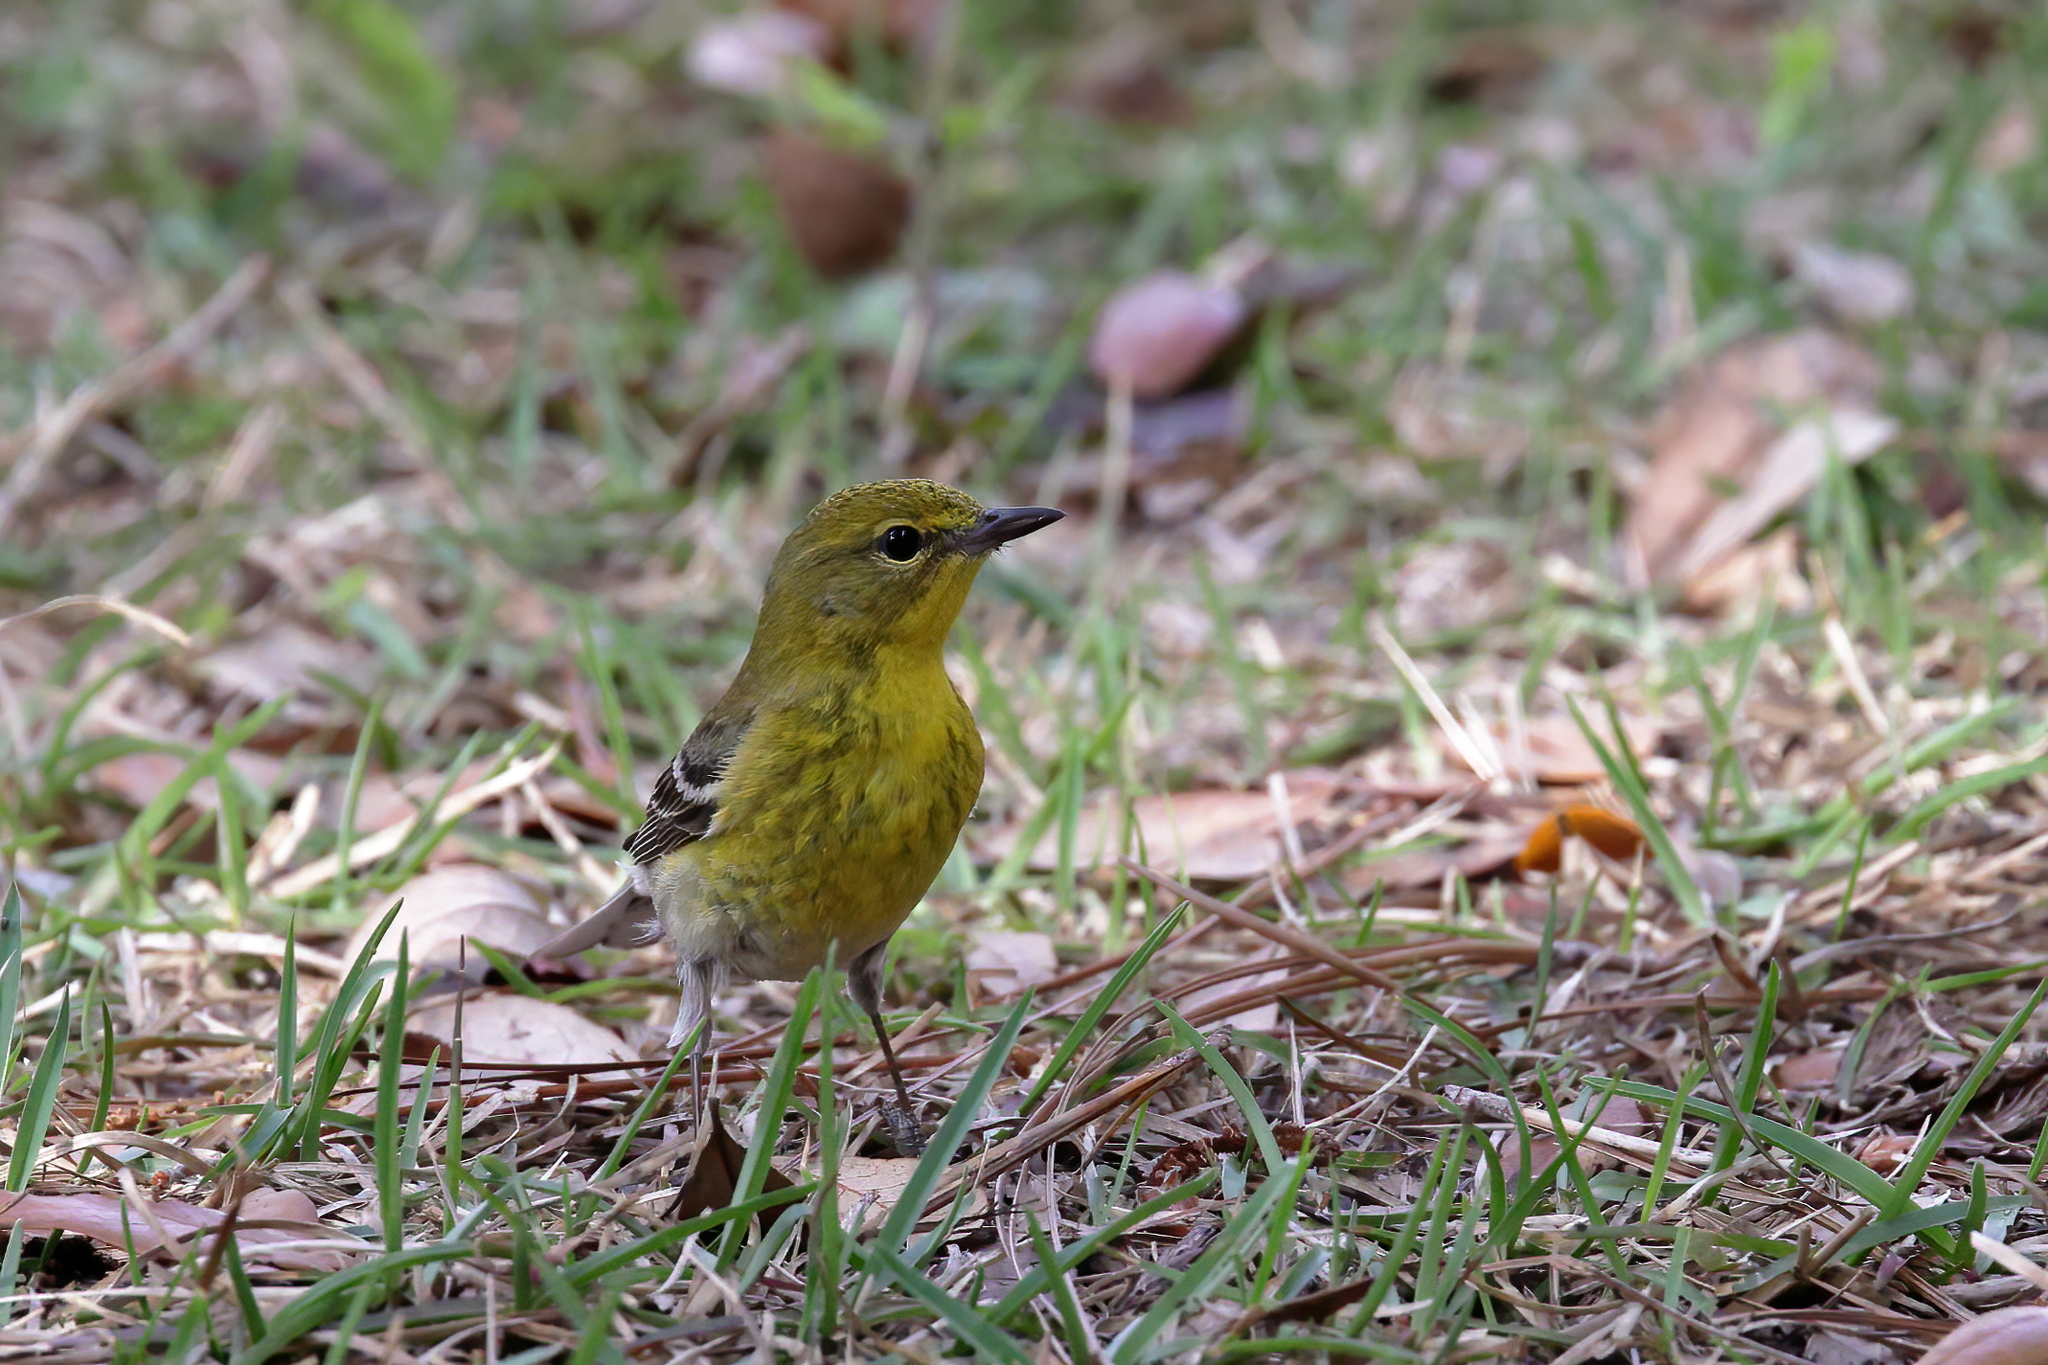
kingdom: Animalia
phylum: Chordata
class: Aves
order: Passeriformes
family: Parulidae
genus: Setophaga
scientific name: Setophaga pinus
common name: Pine warbler
